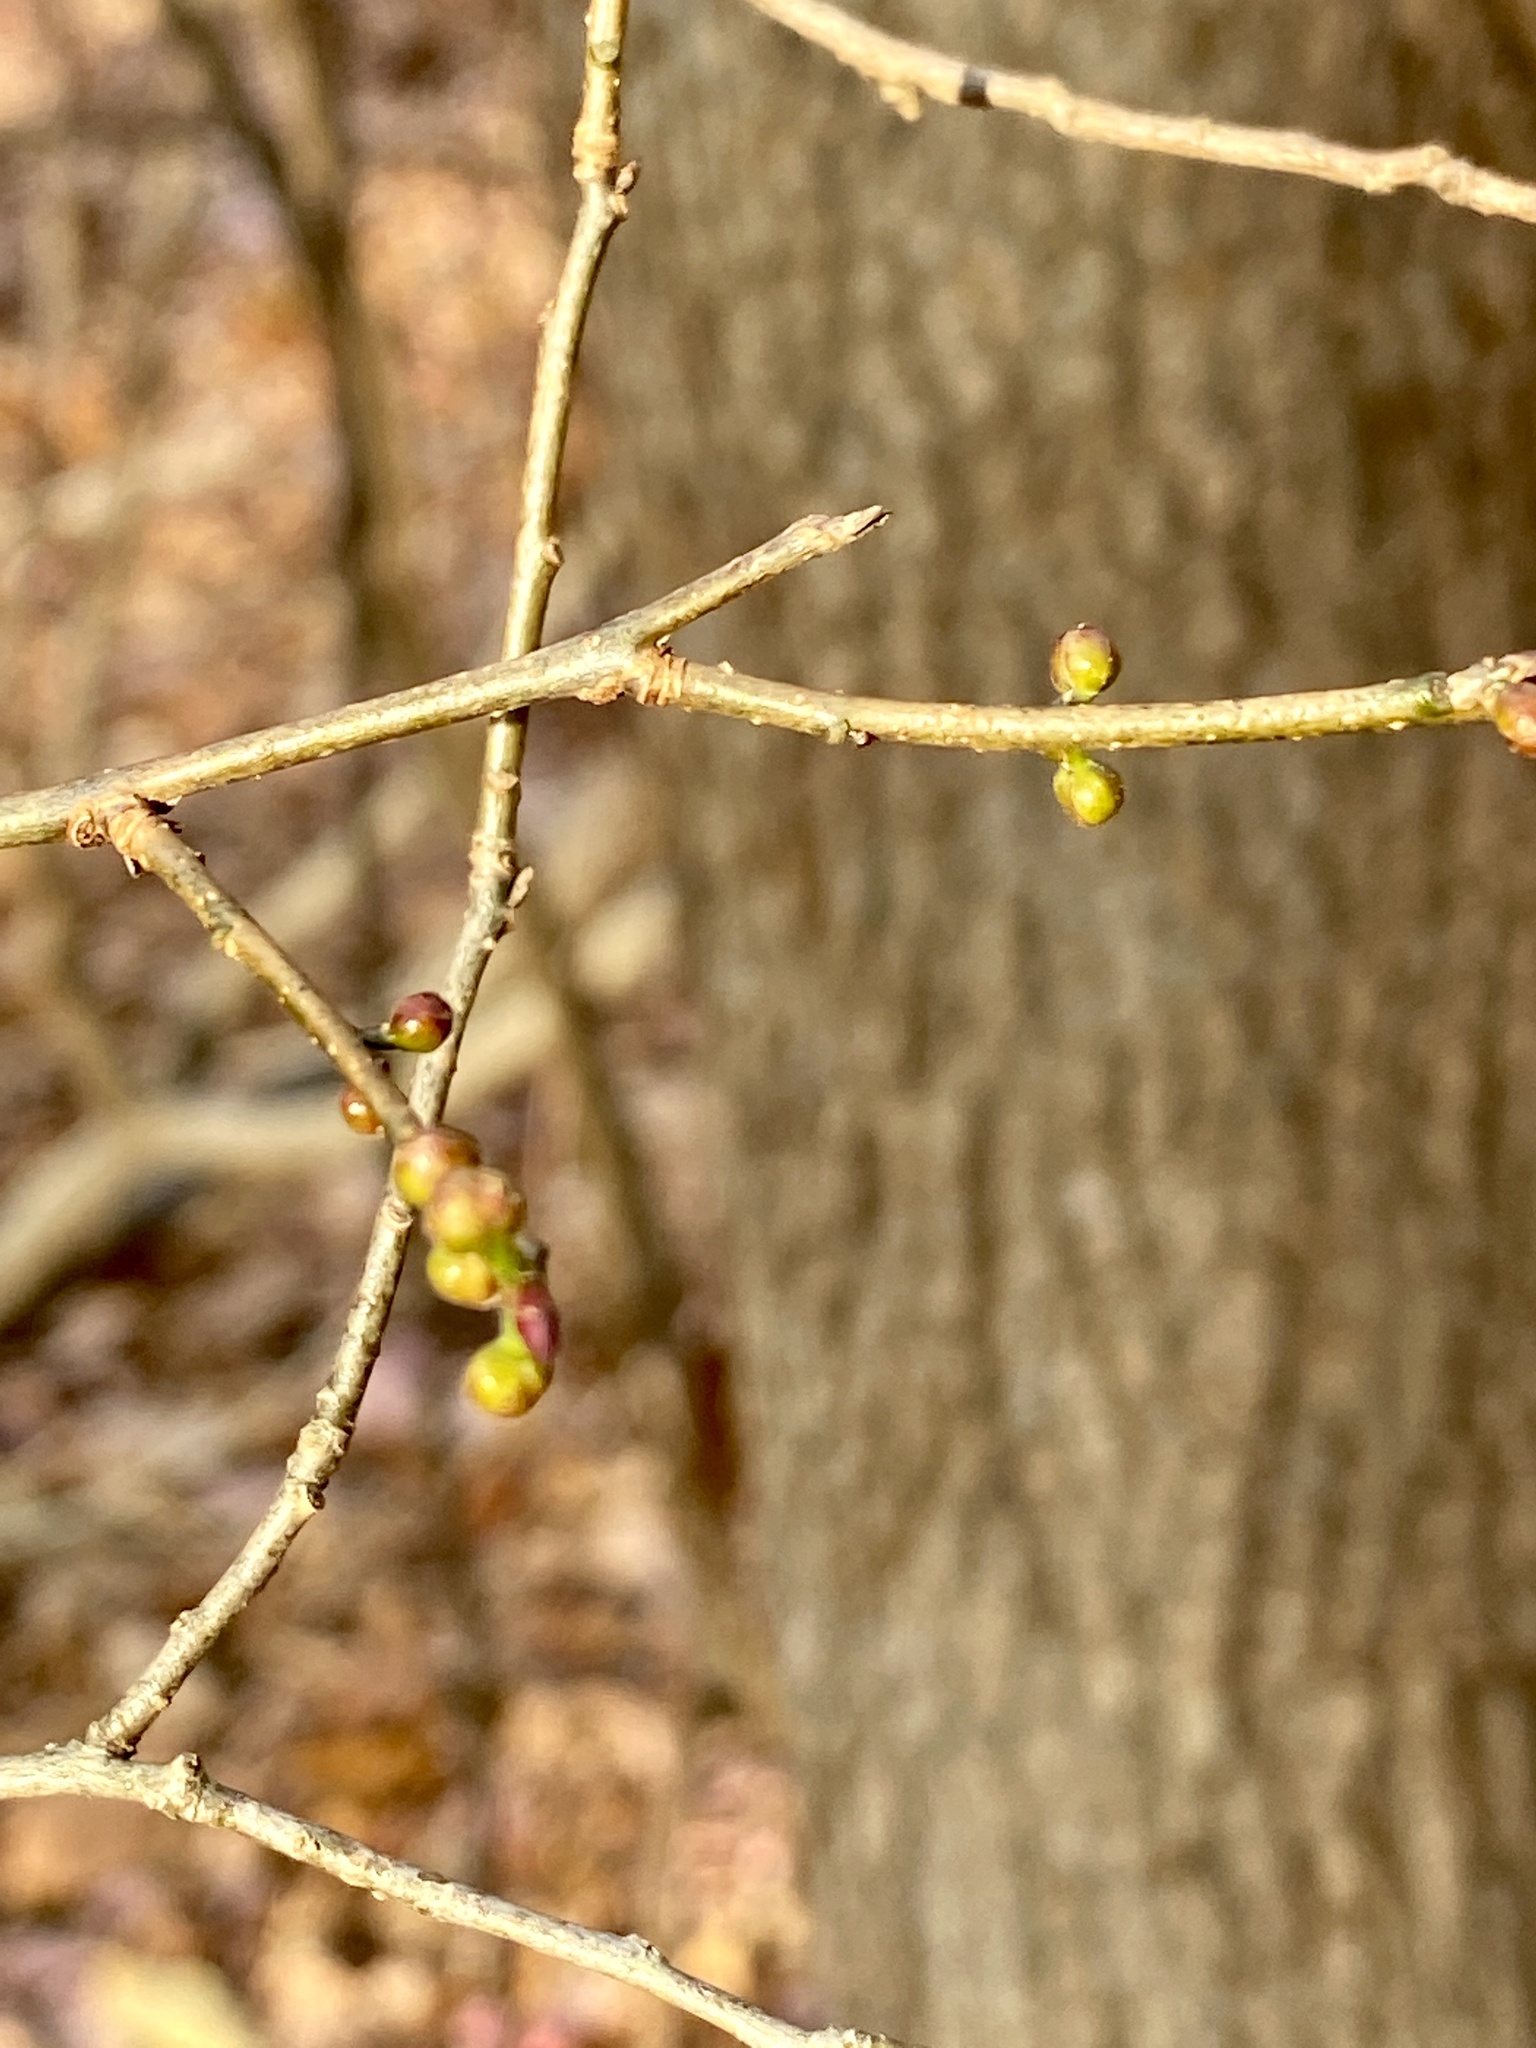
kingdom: Plantae
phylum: Tracheophyta
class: Magnoliopsida
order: Laurales
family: Lauraceae
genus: Lindera
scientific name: Lindera benzoin
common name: Spicebush
